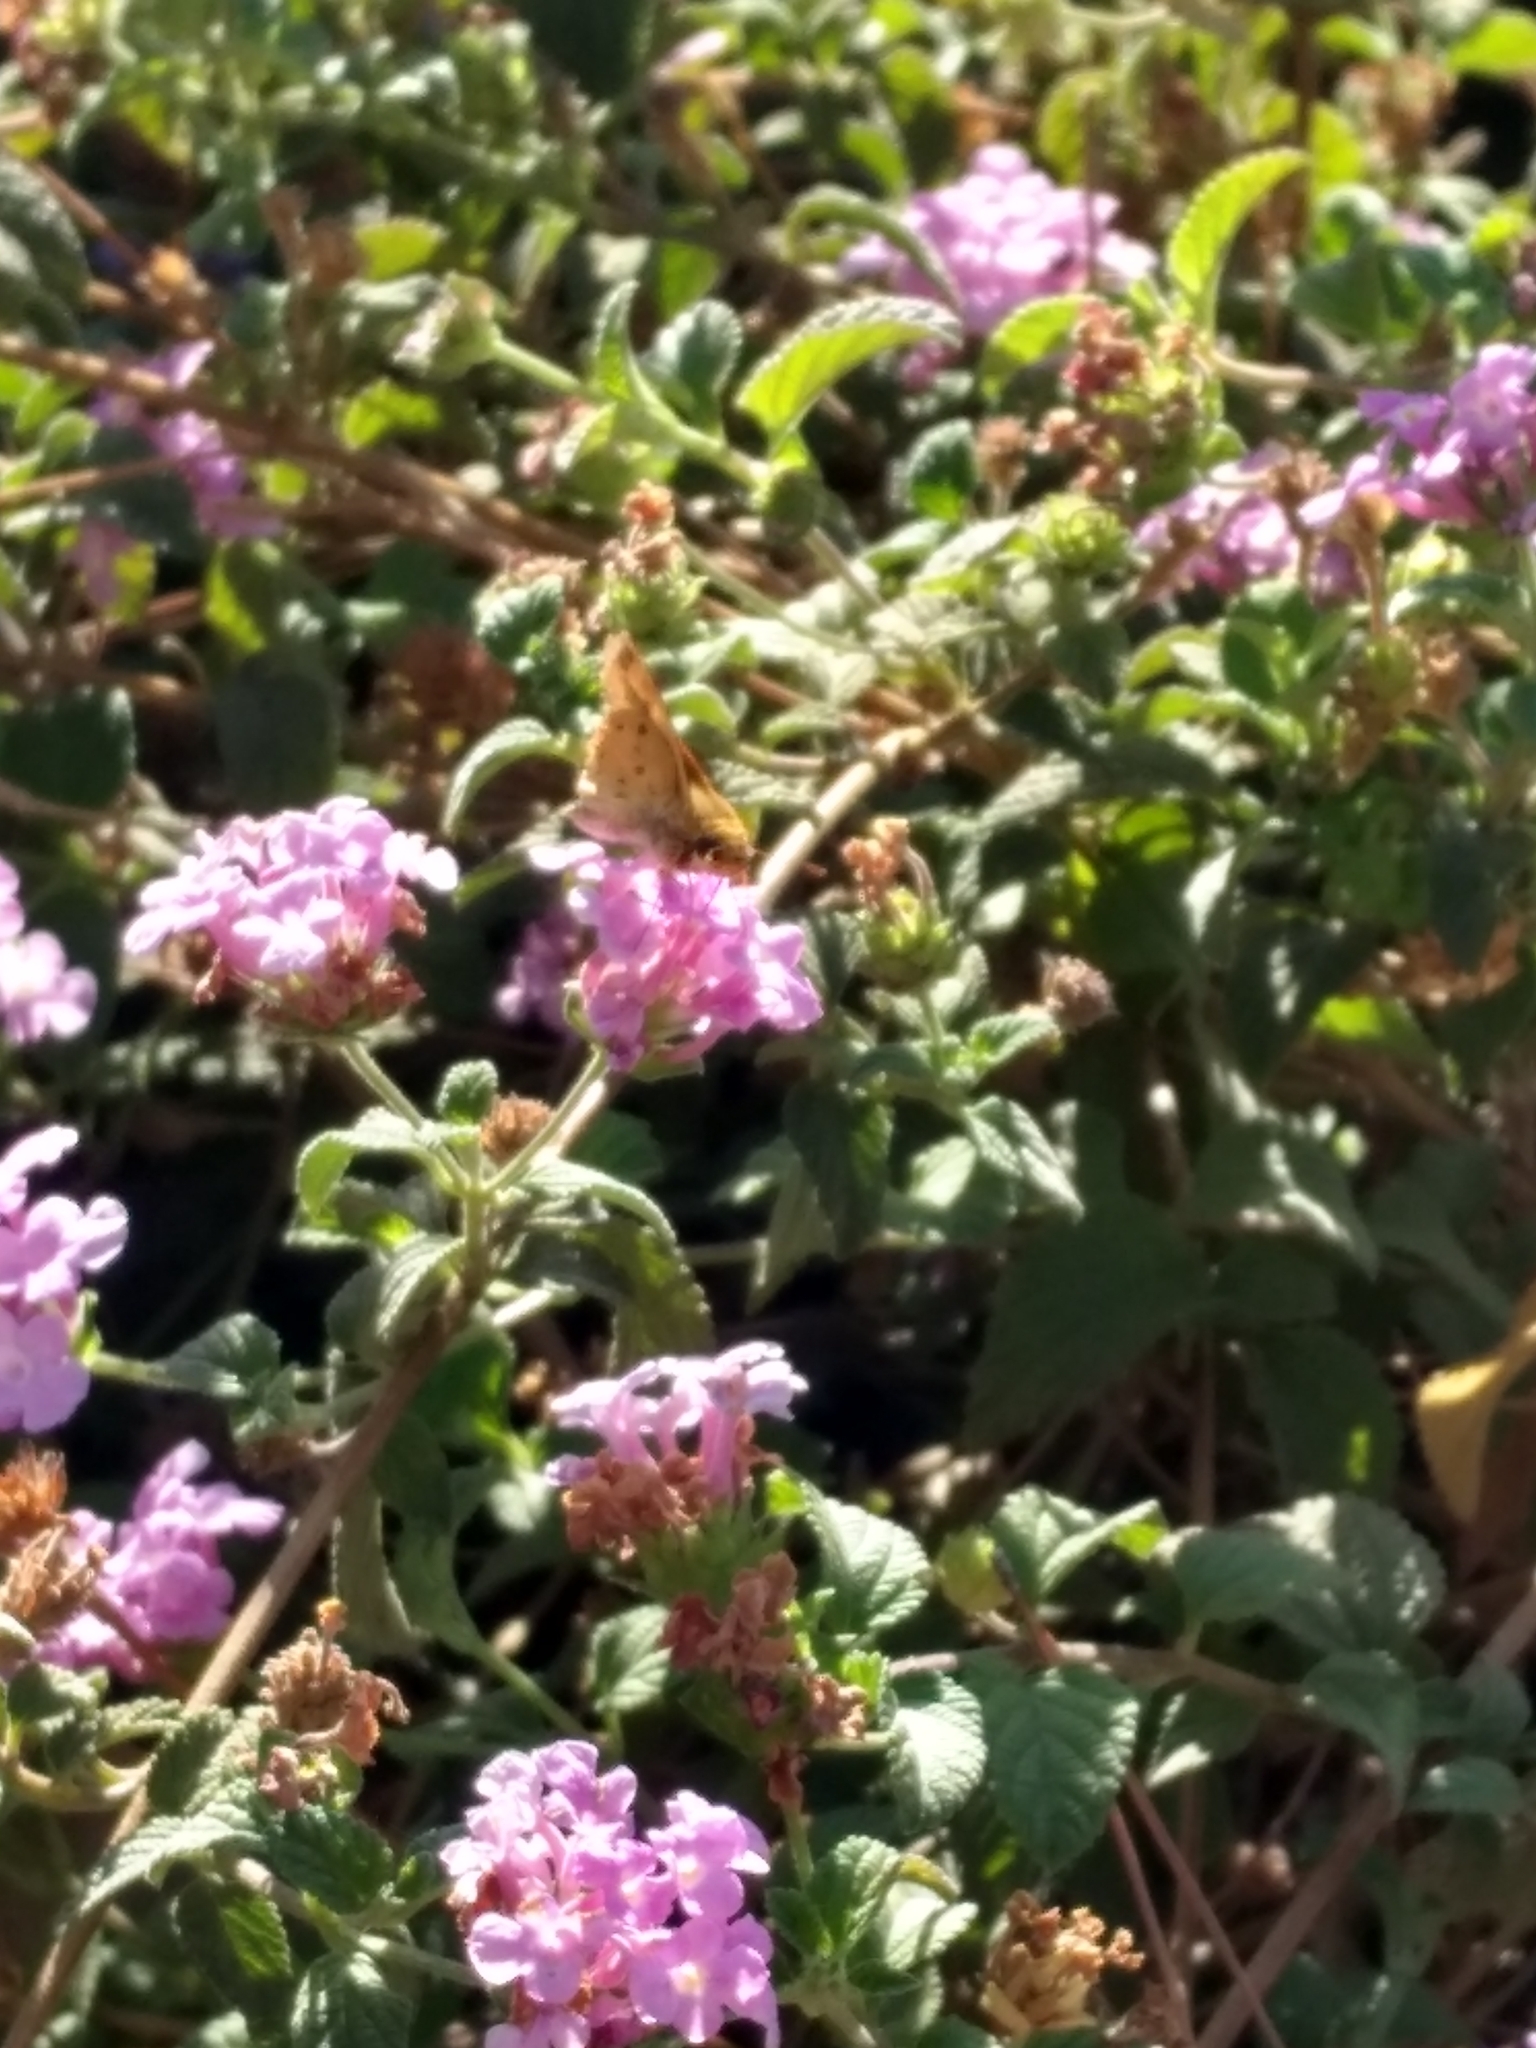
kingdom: Animalia
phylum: Arthropoda
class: Insecta
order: Lepidoptera
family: Hesperiidae
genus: Hylephila
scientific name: Hylephila phyleus
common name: Fiery skipper
